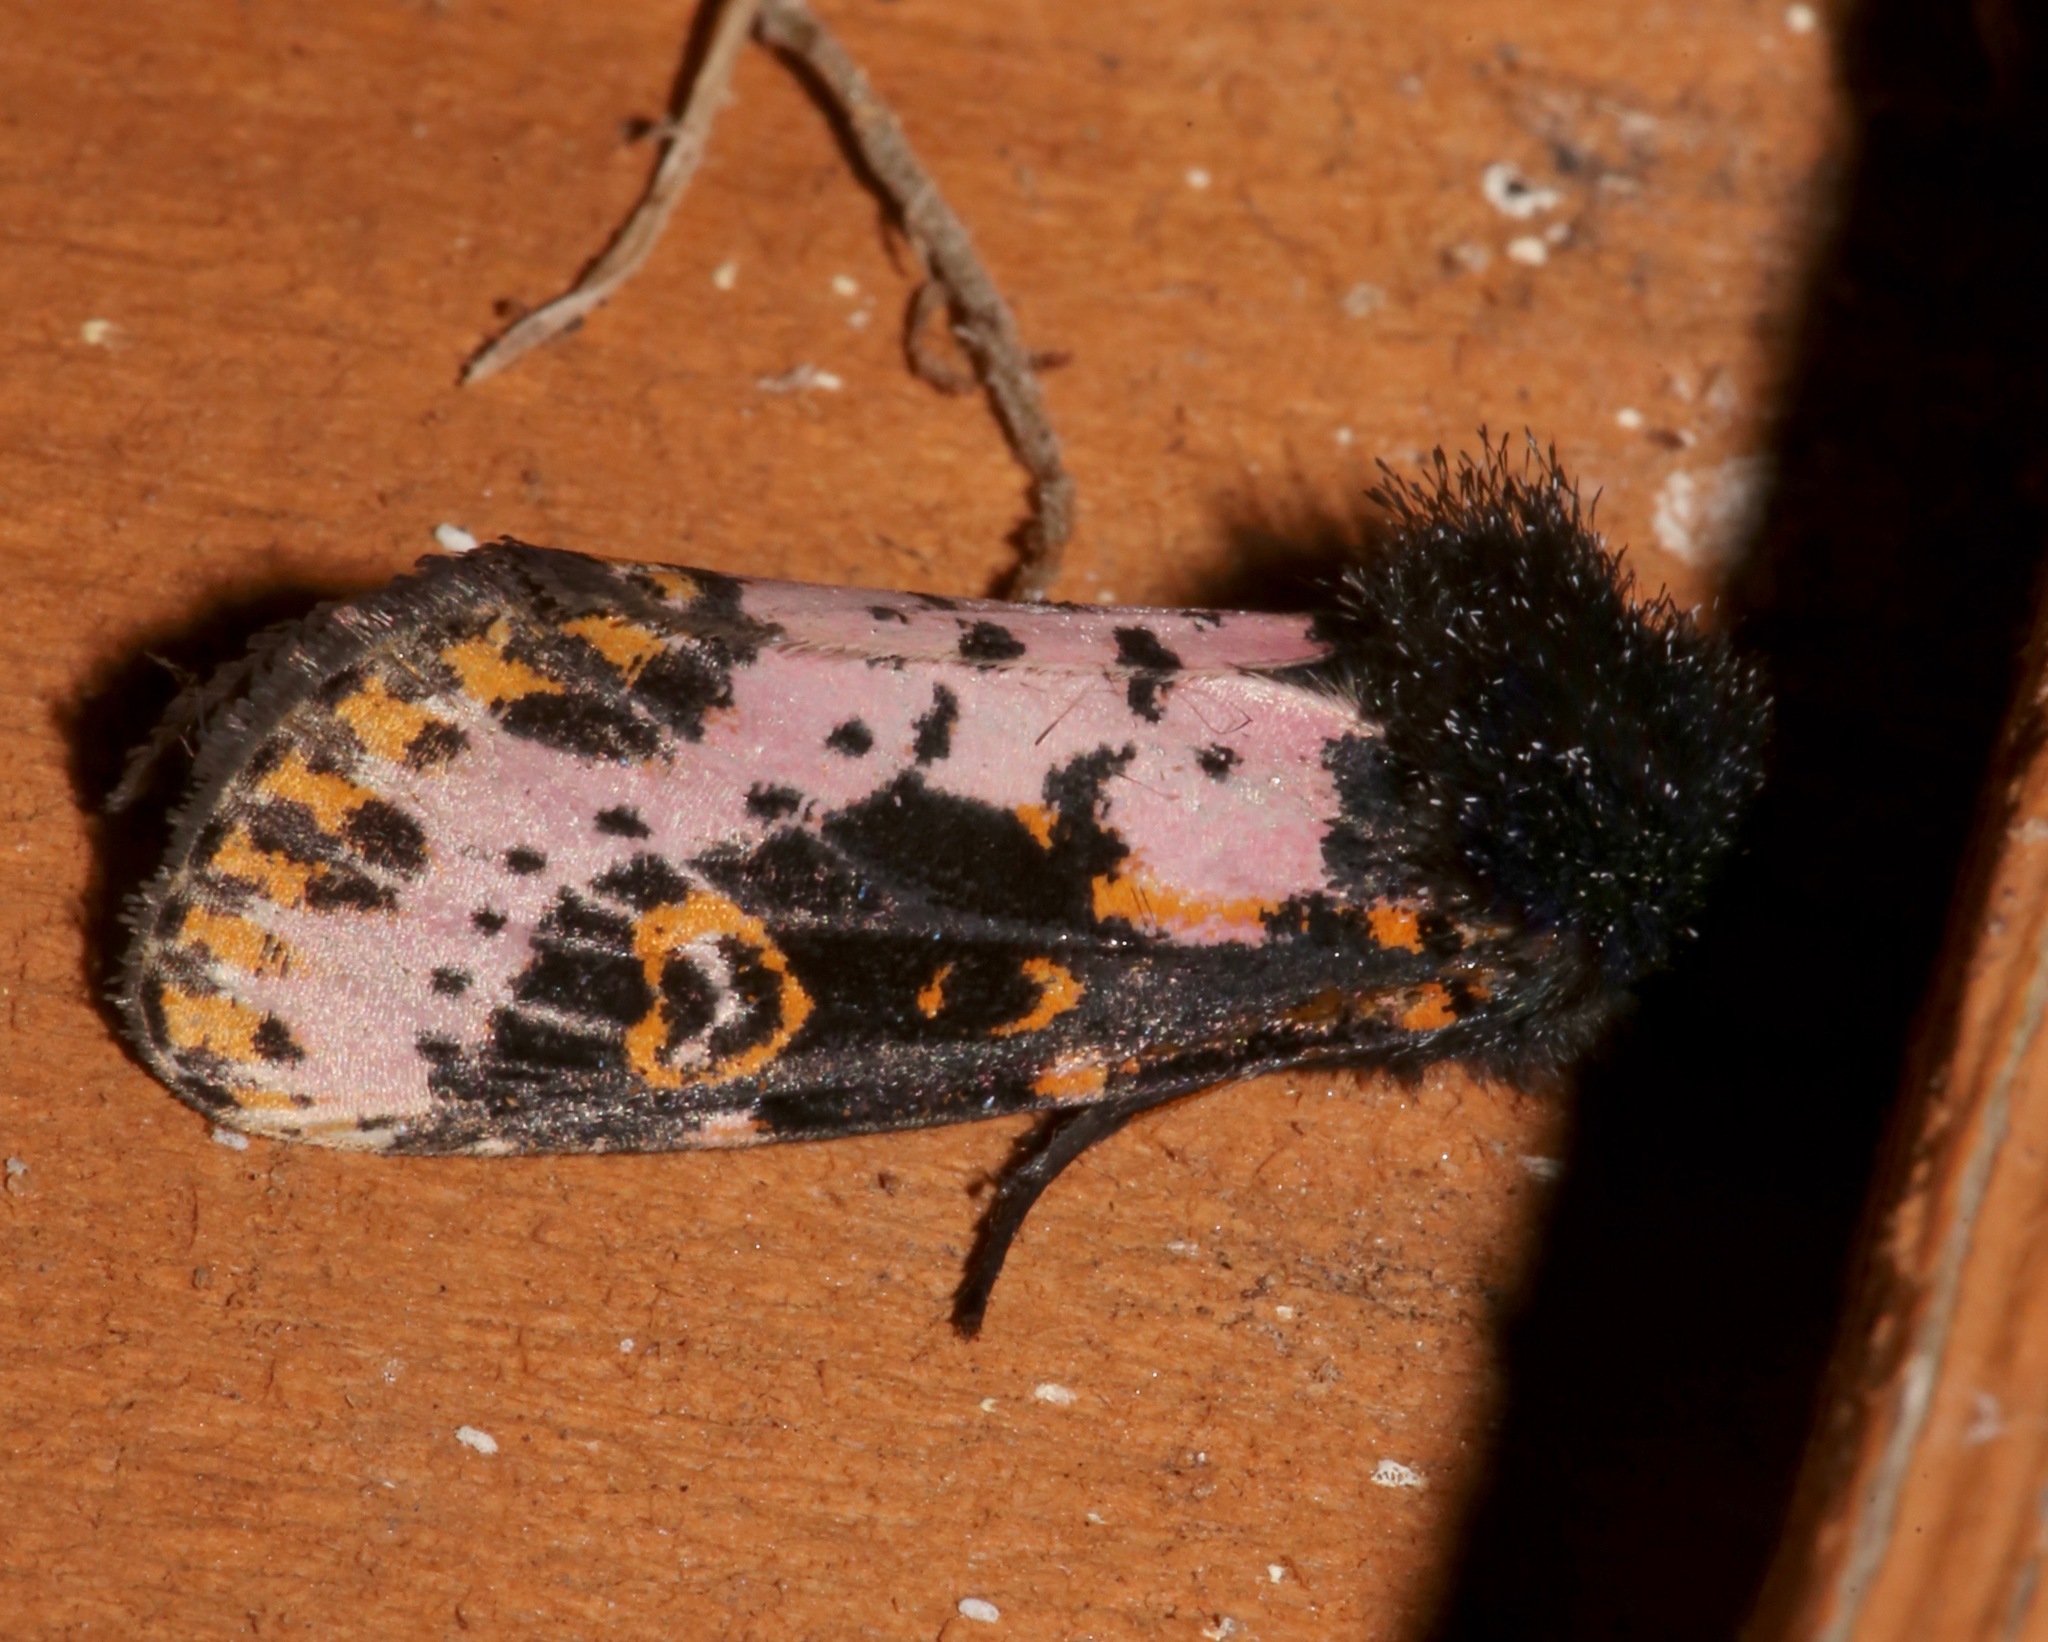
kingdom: Animalia
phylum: Arthropoda
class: Insecta
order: Lepidoptera
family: Noctuidae
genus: Xanthopastis
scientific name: Xanthopastis regnatrix
